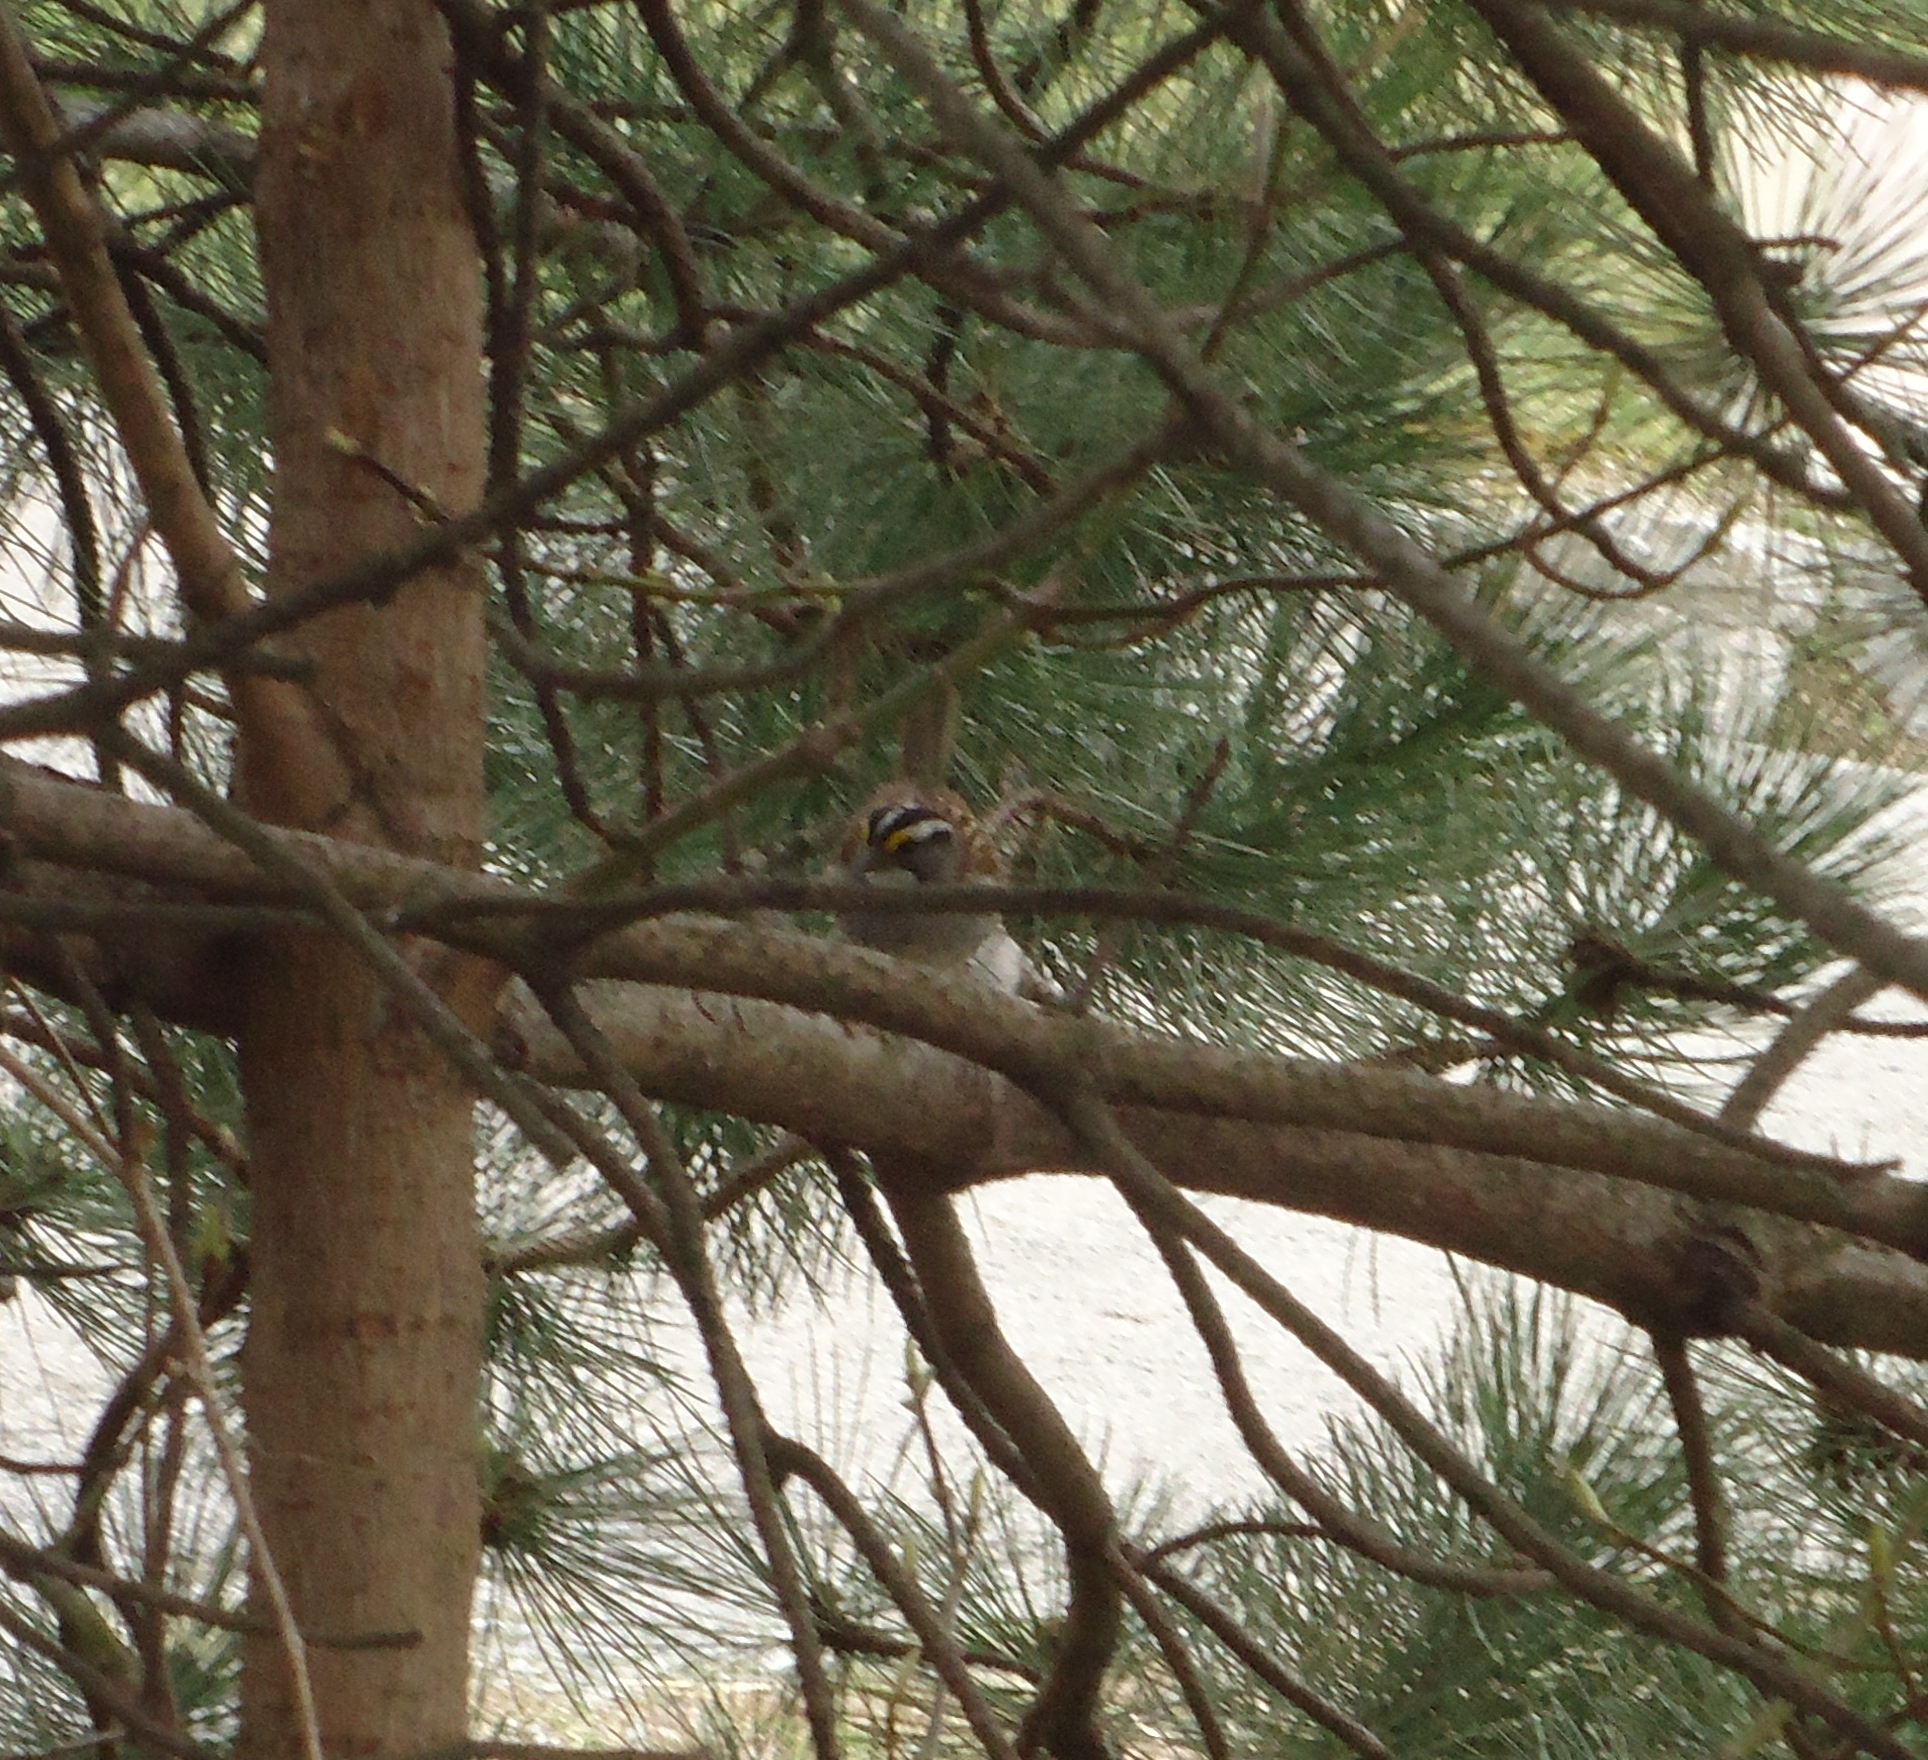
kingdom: Animalia
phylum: Chordata
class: Aves
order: Passeriformes
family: Passerellidae
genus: Zonotrichia
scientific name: Zonotrichia albicollis
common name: White-throated sparrow
